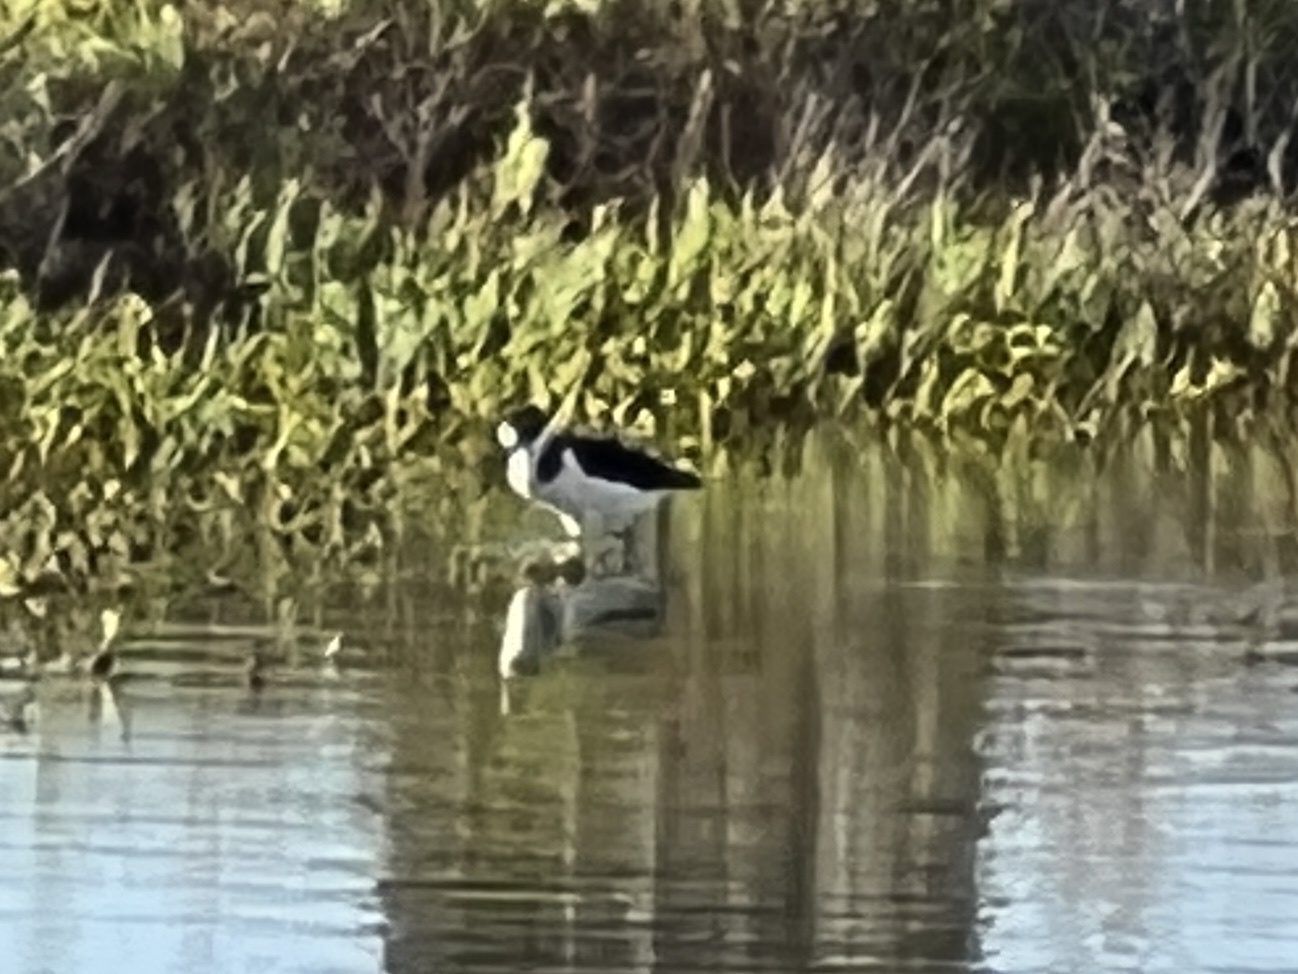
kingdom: Animalia
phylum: Chordata
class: Aves
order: Charadriiformes
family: Recurvirostridae
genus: Himantopus
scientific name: Himantopus mexicanus
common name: Black-necked stilt
